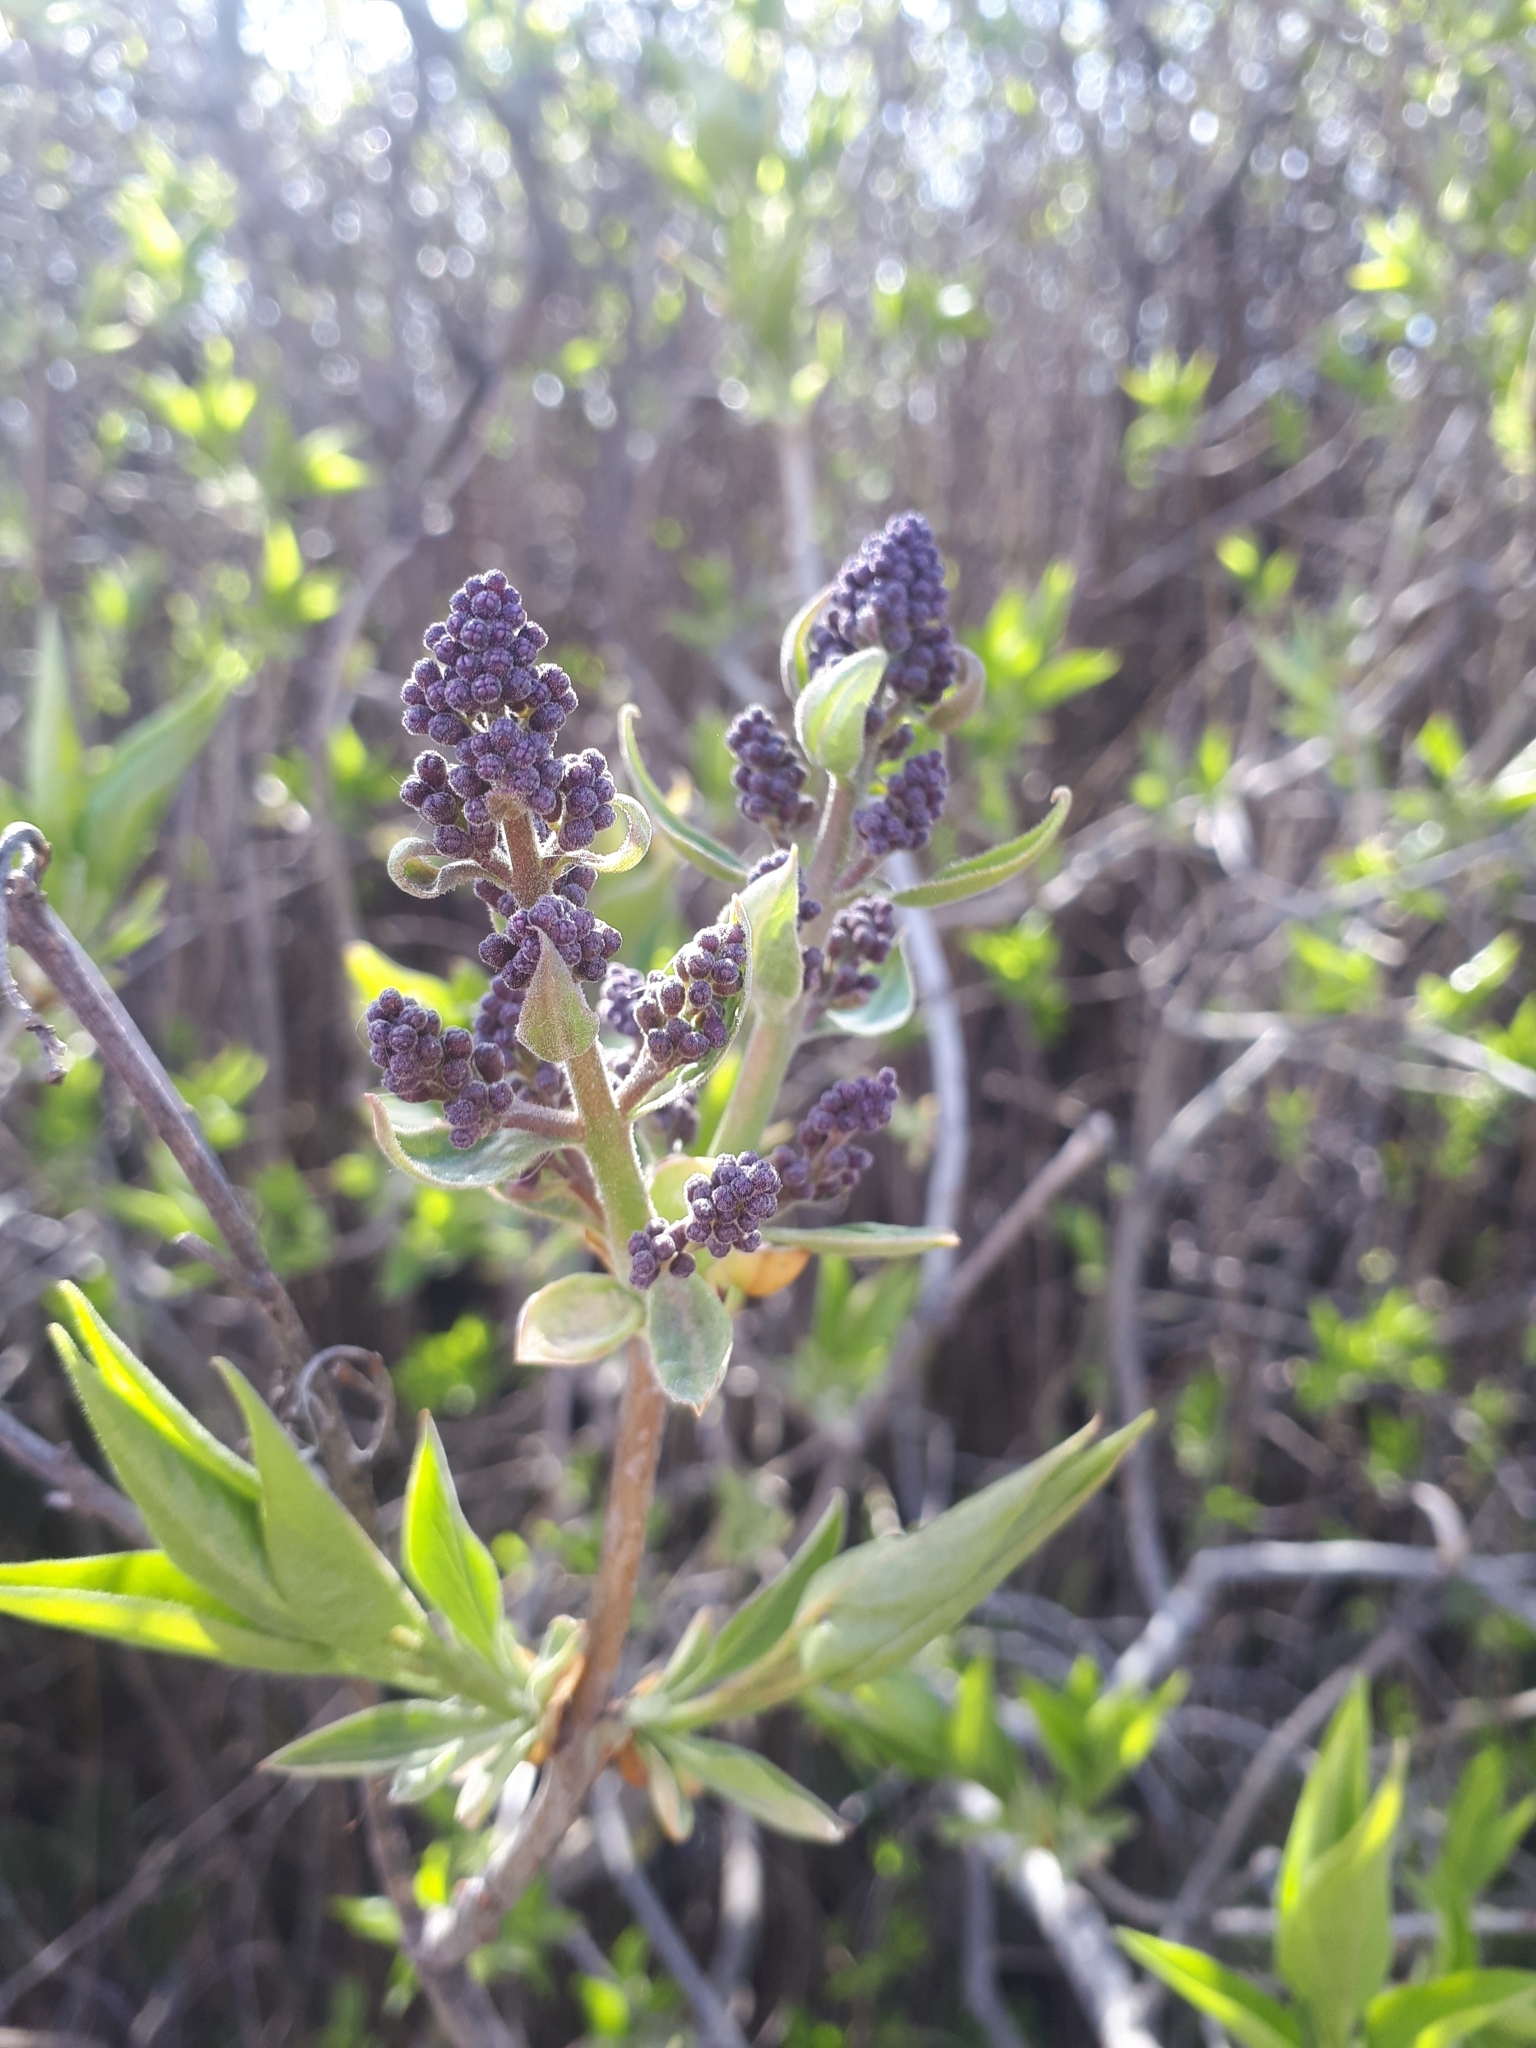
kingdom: Plantae
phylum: Tracheophyta
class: Magnoliopsida
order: Lamiales
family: Oleaceae
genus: Syringa
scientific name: Syringa vulgaris
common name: Common lilac
